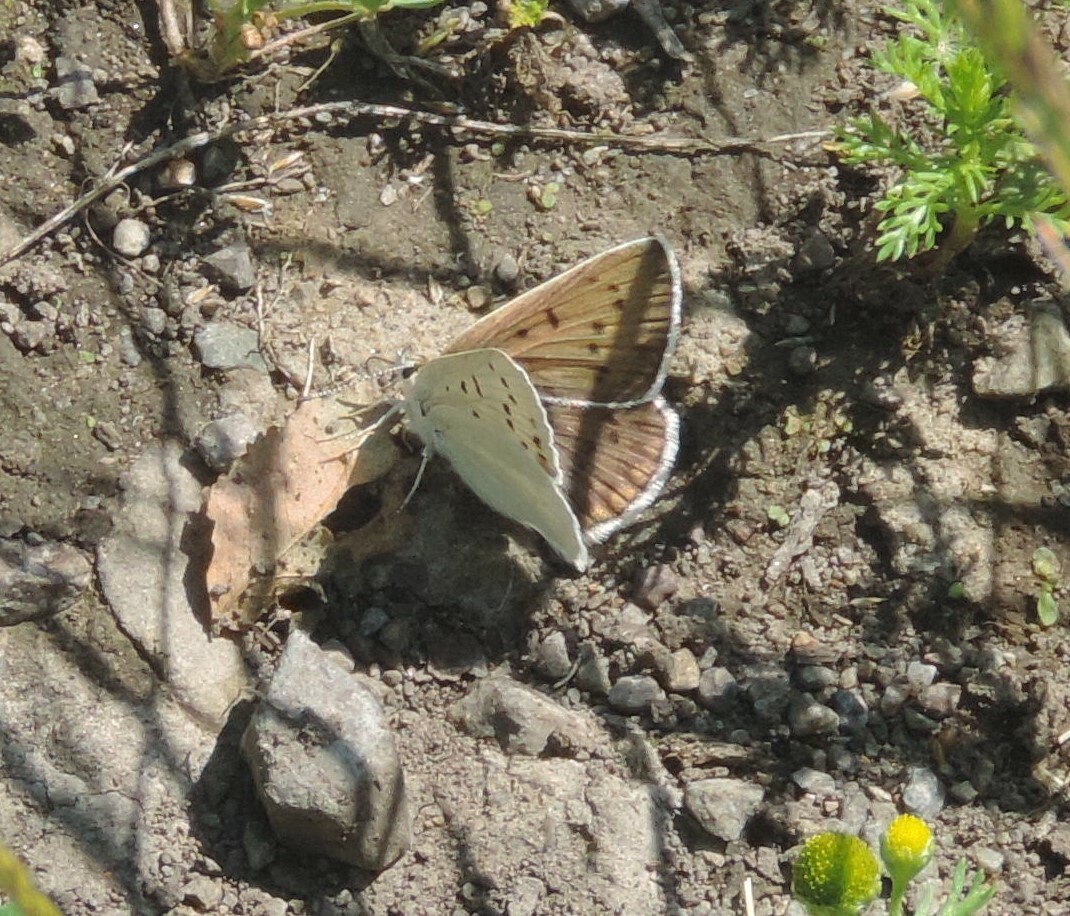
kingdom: Animalia
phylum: Arthropoda
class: Insecta
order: Lepidoptera
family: Lycaenidae
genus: Tharsalea
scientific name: Tharsalea heteronea
